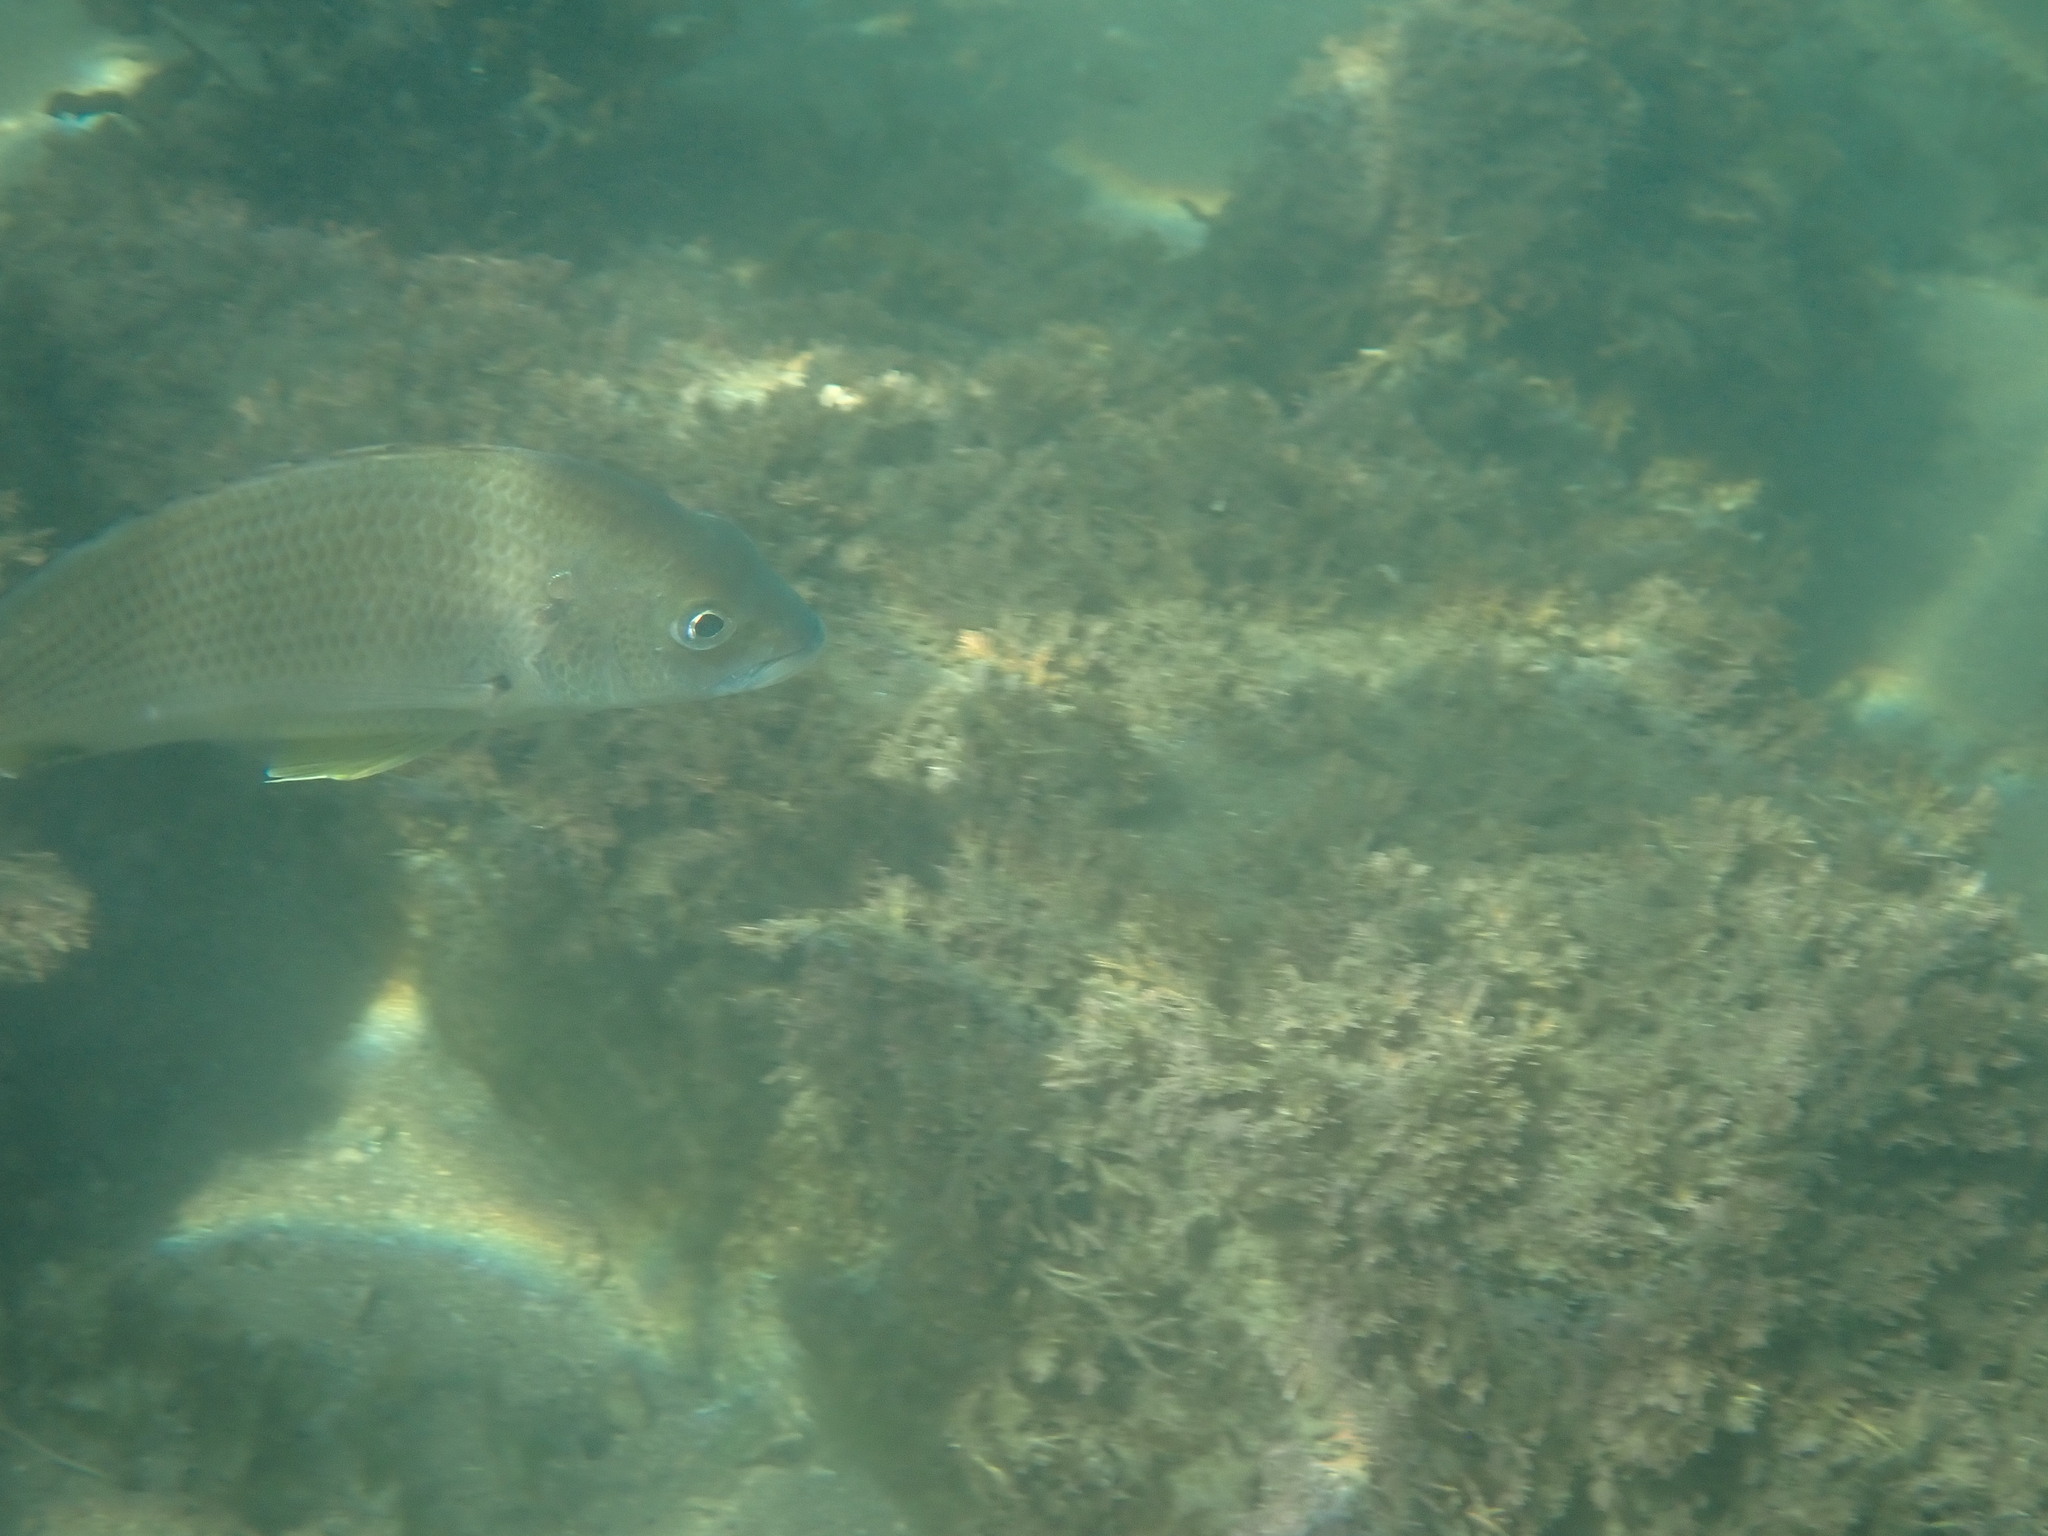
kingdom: Animalia
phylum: Chordata
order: Perciformes
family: Sparidae
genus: Acanthopagrus
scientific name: Acanthopagrus australis
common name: Surf bream
